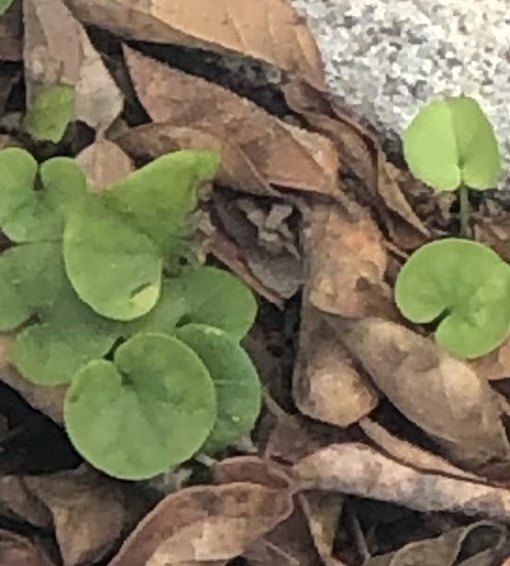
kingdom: Plantae
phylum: Tracheophyta
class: Magnoliopsida
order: Solanales
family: Convolvulaceae
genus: Dichondra
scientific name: Dichondra carolinensis
